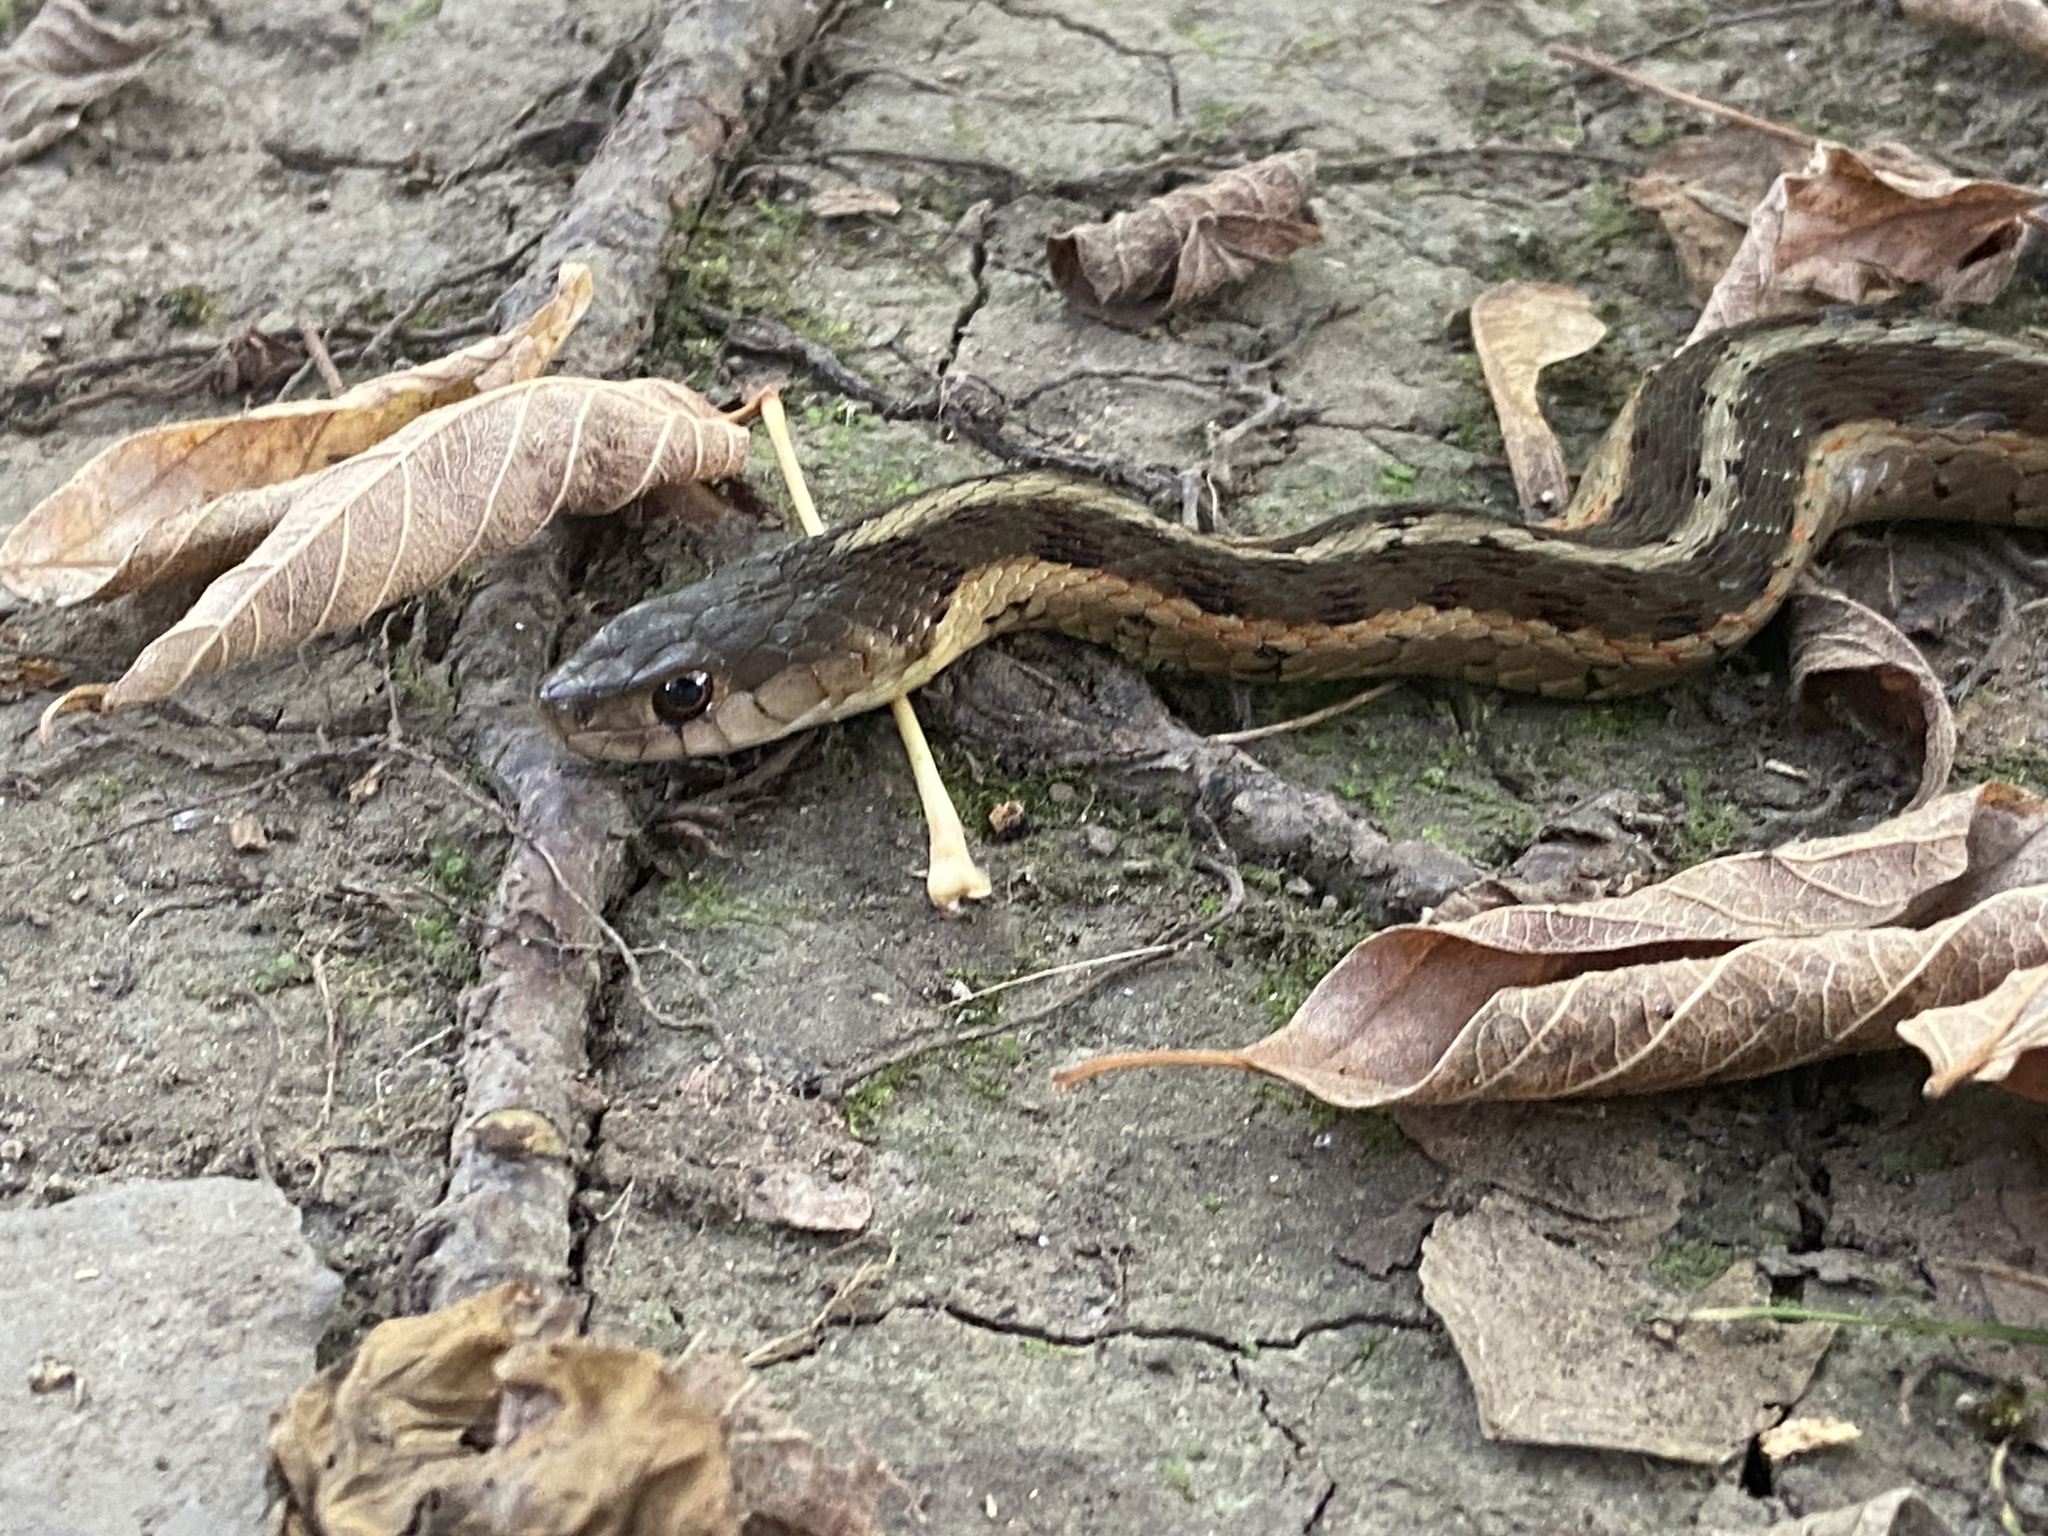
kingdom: Animalia
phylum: Chordata
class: Squamata
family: Colubridae
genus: Thamnophis
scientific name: Thamnophis sirtalis
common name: Common garter snake
